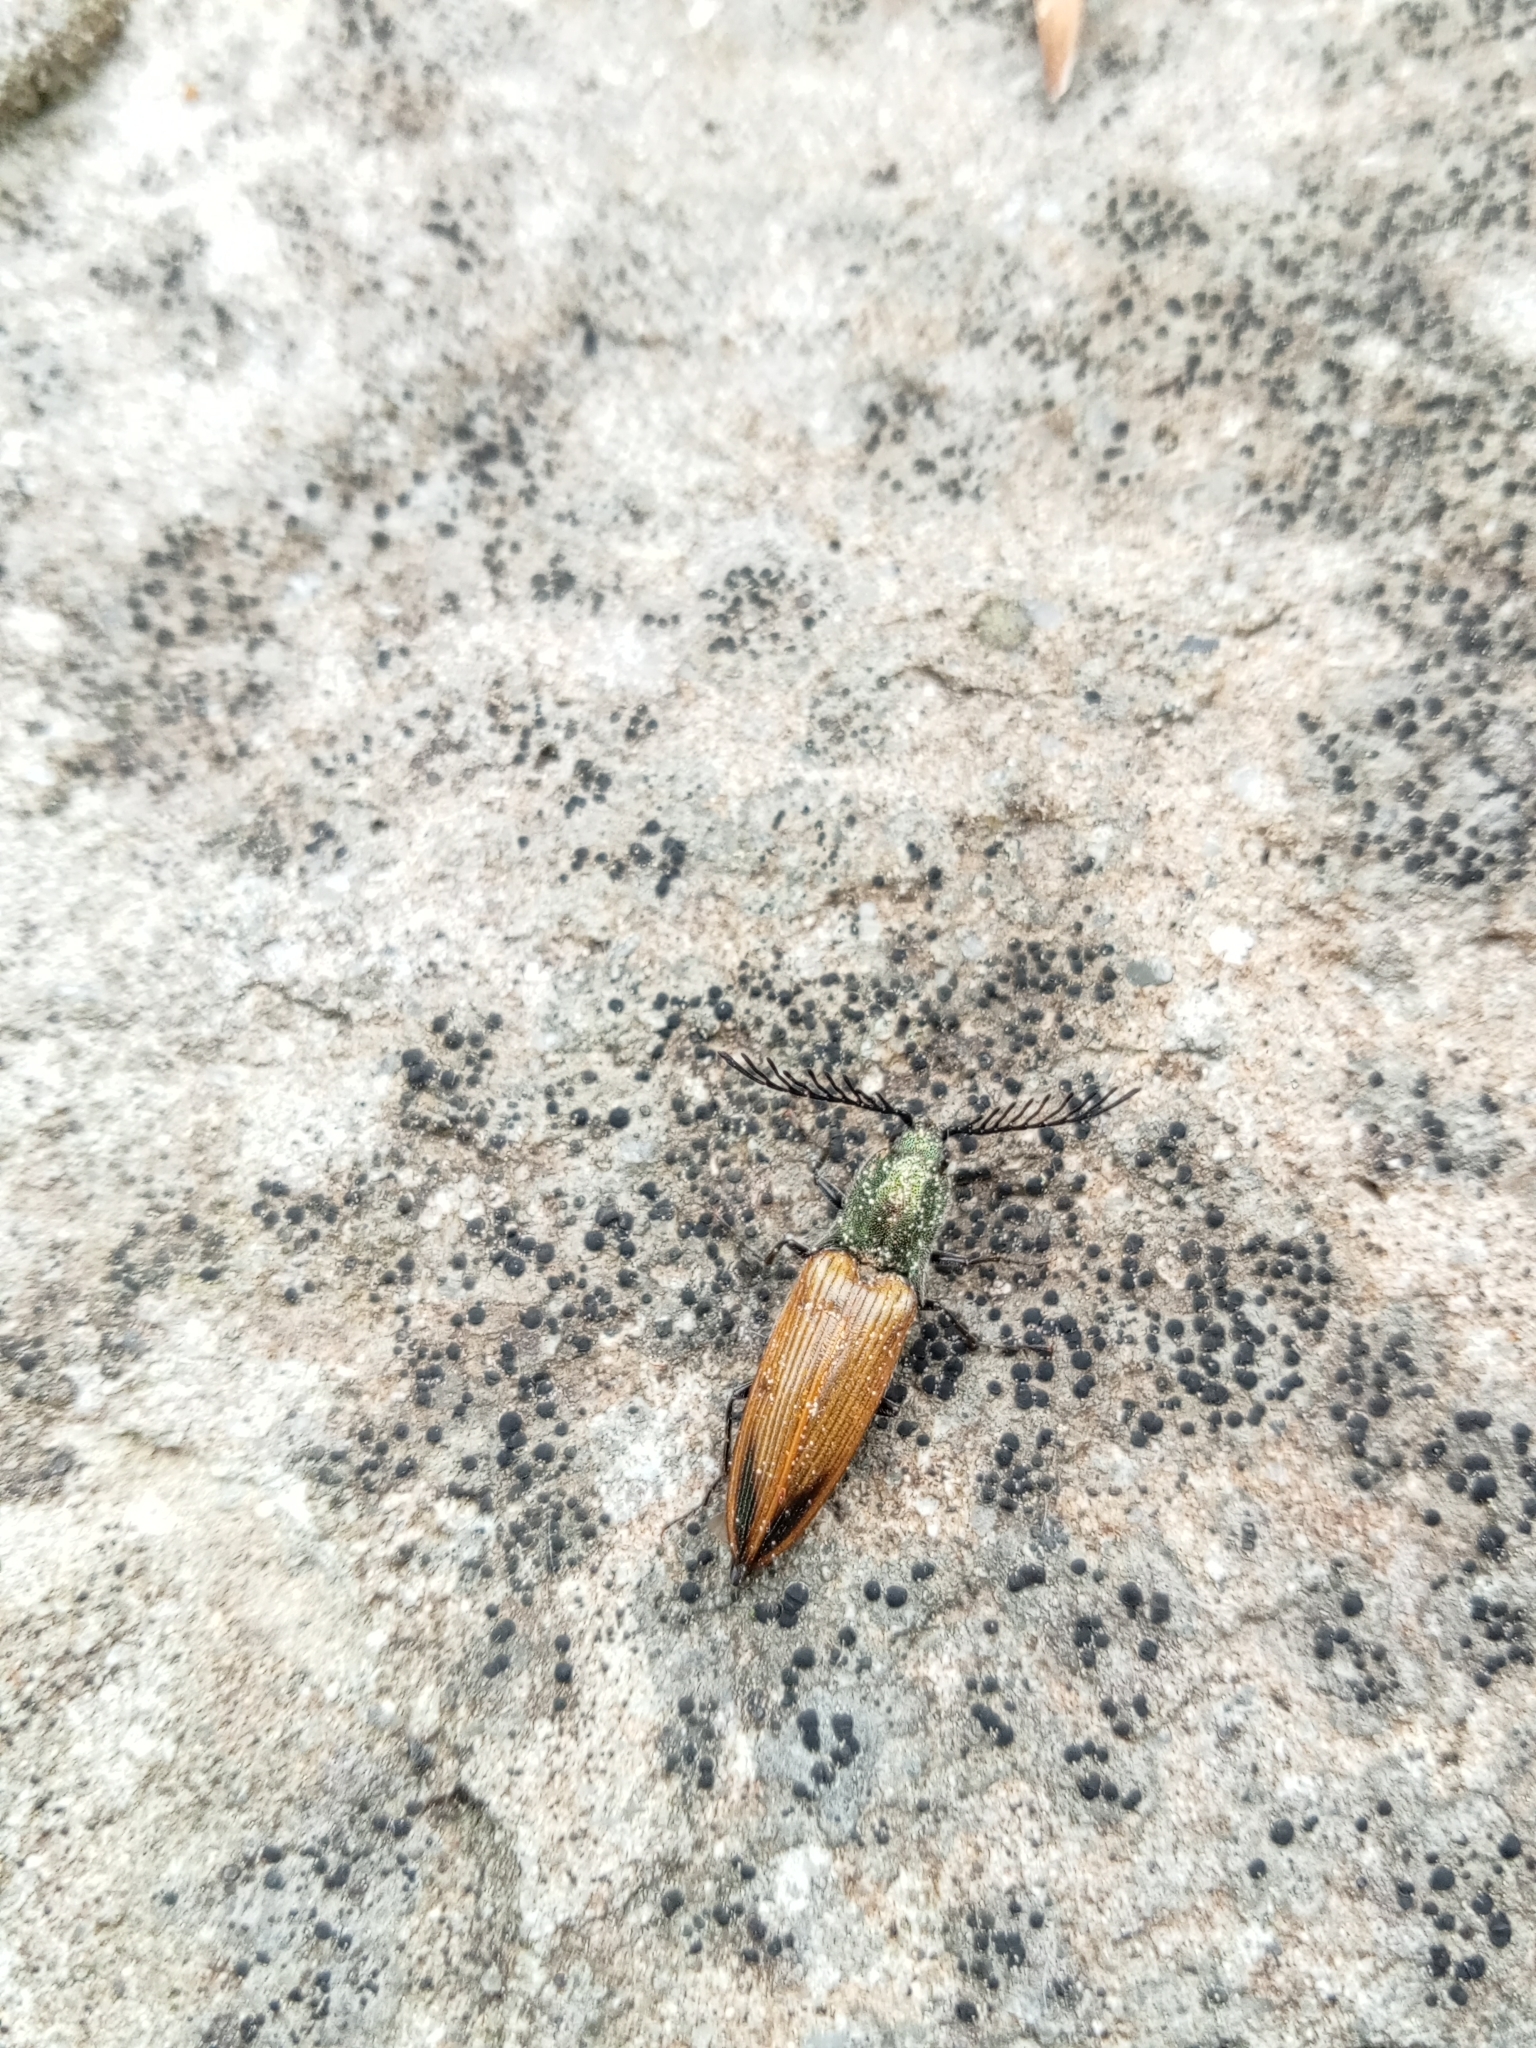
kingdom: Animalia
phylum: Arthropoda
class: Insecta
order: Coleoptera
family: Elateridae
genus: Ctenicera
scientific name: Ctenicera virens
